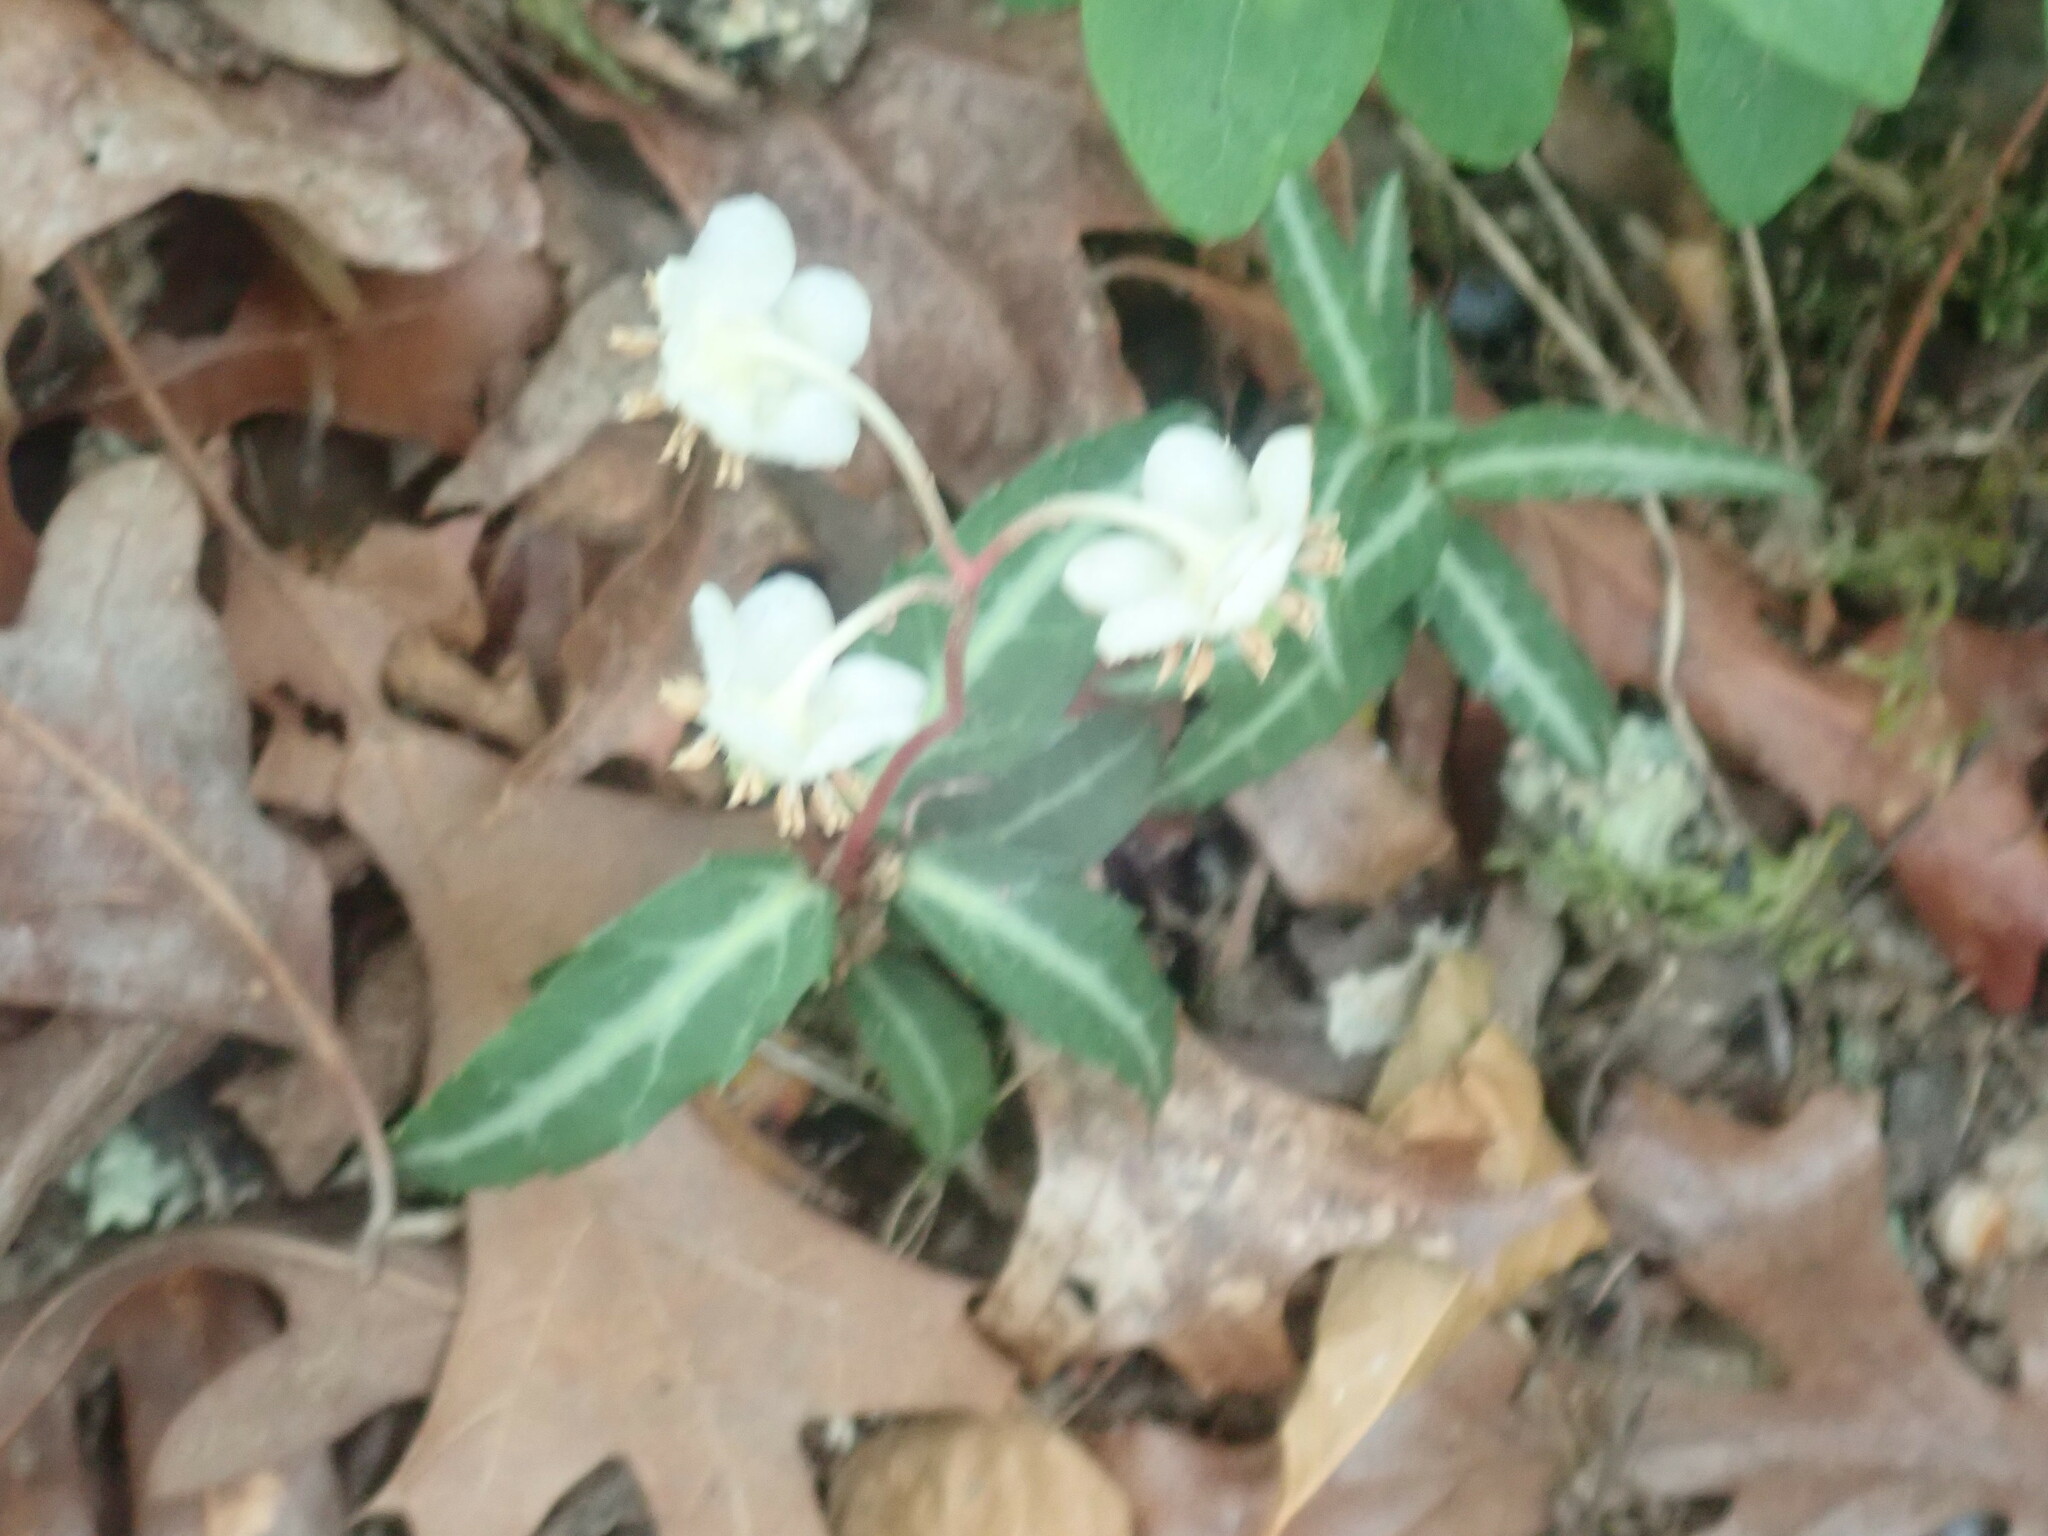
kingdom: Plantae
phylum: Tracheophyta
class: Magnoliopsida
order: Ericales
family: Ericaceae
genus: Chimaphila
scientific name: Chimaphila maculata
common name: Spotted pipsissewa
